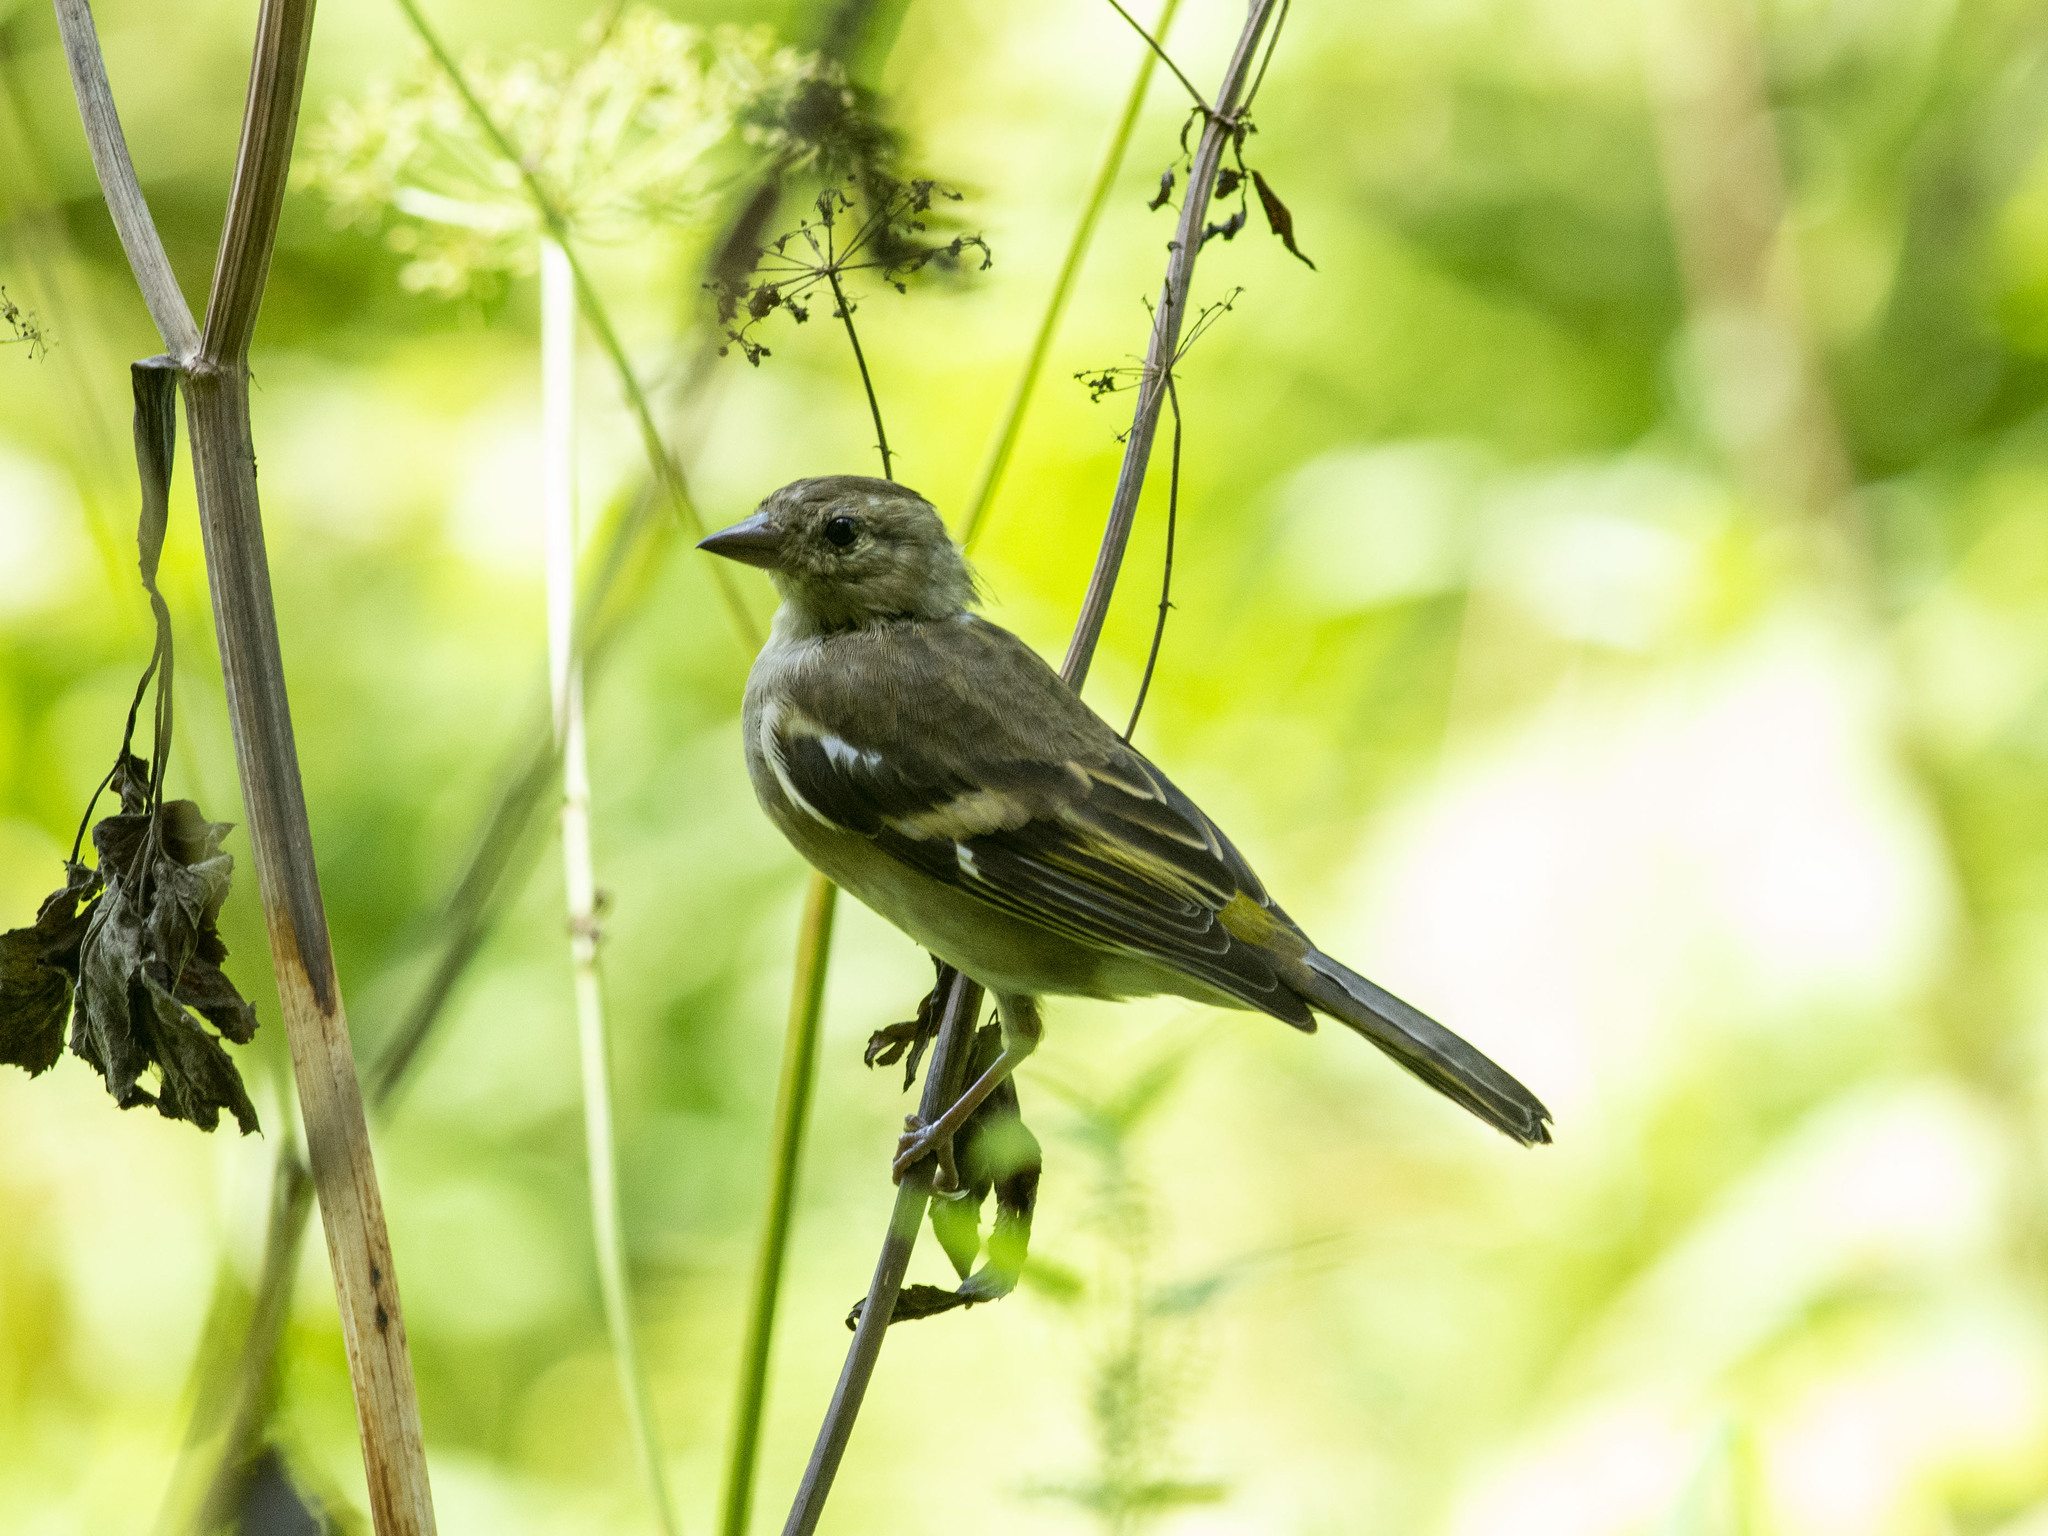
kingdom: Animalia
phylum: Chordata
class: Aves
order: Passeriformes
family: Fringillidae
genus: Fringilla
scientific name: Fringilla coelebs
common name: Common chaffinch
